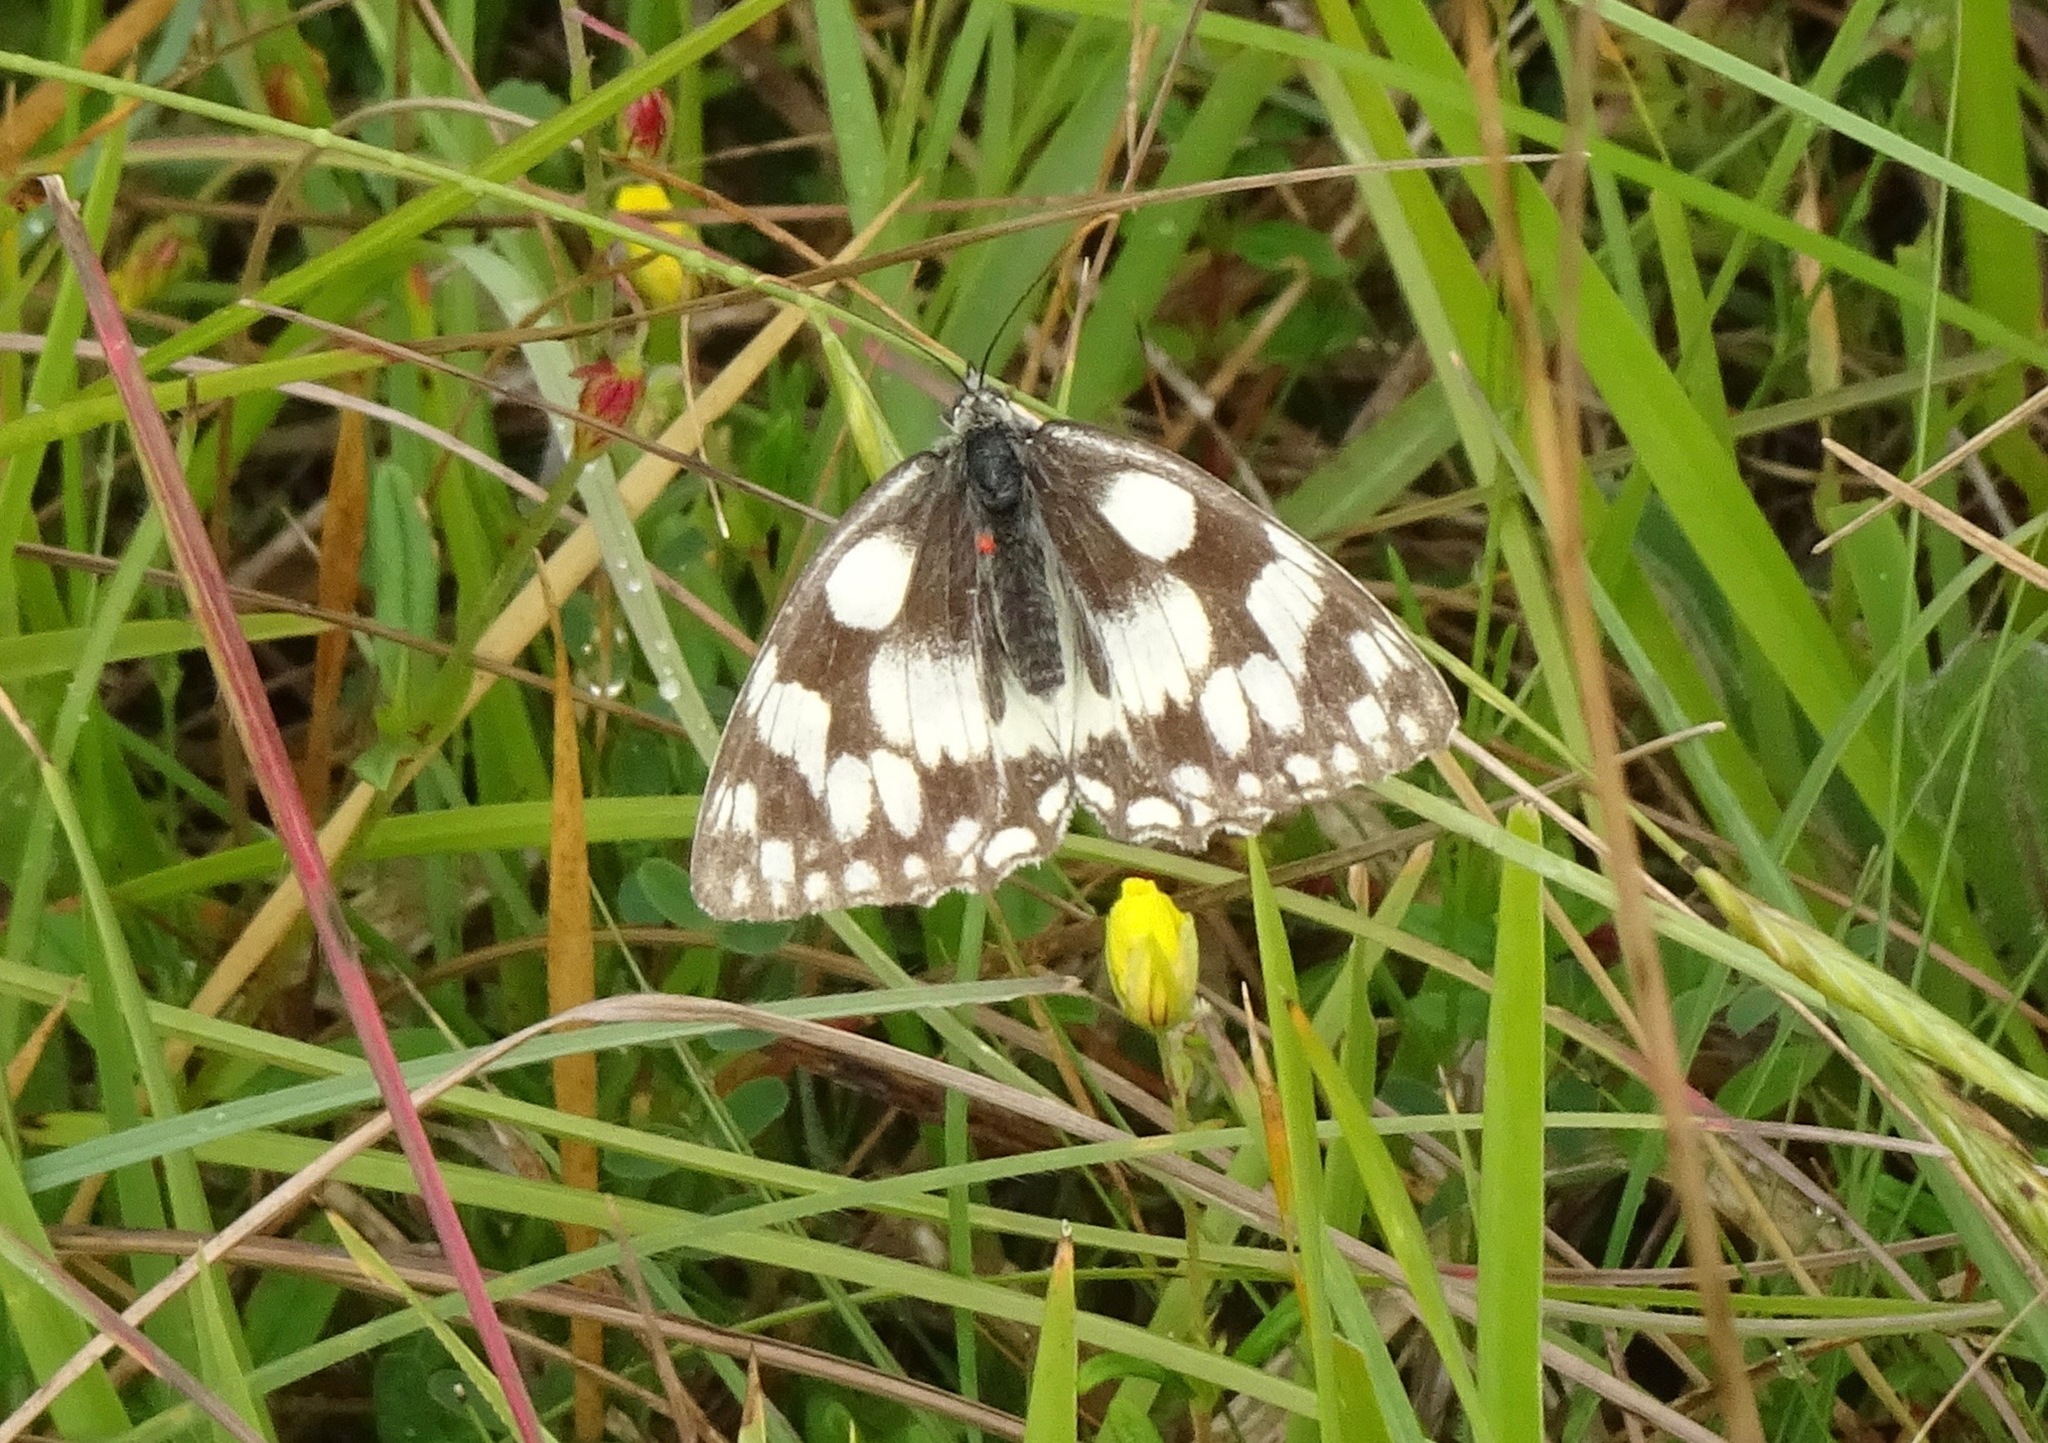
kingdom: Animalia
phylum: Arthropoda
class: Insecta
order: Lepidoptera
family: Nymphalidae
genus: Melanargia
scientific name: Melanargia galathea
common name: Marbled white
